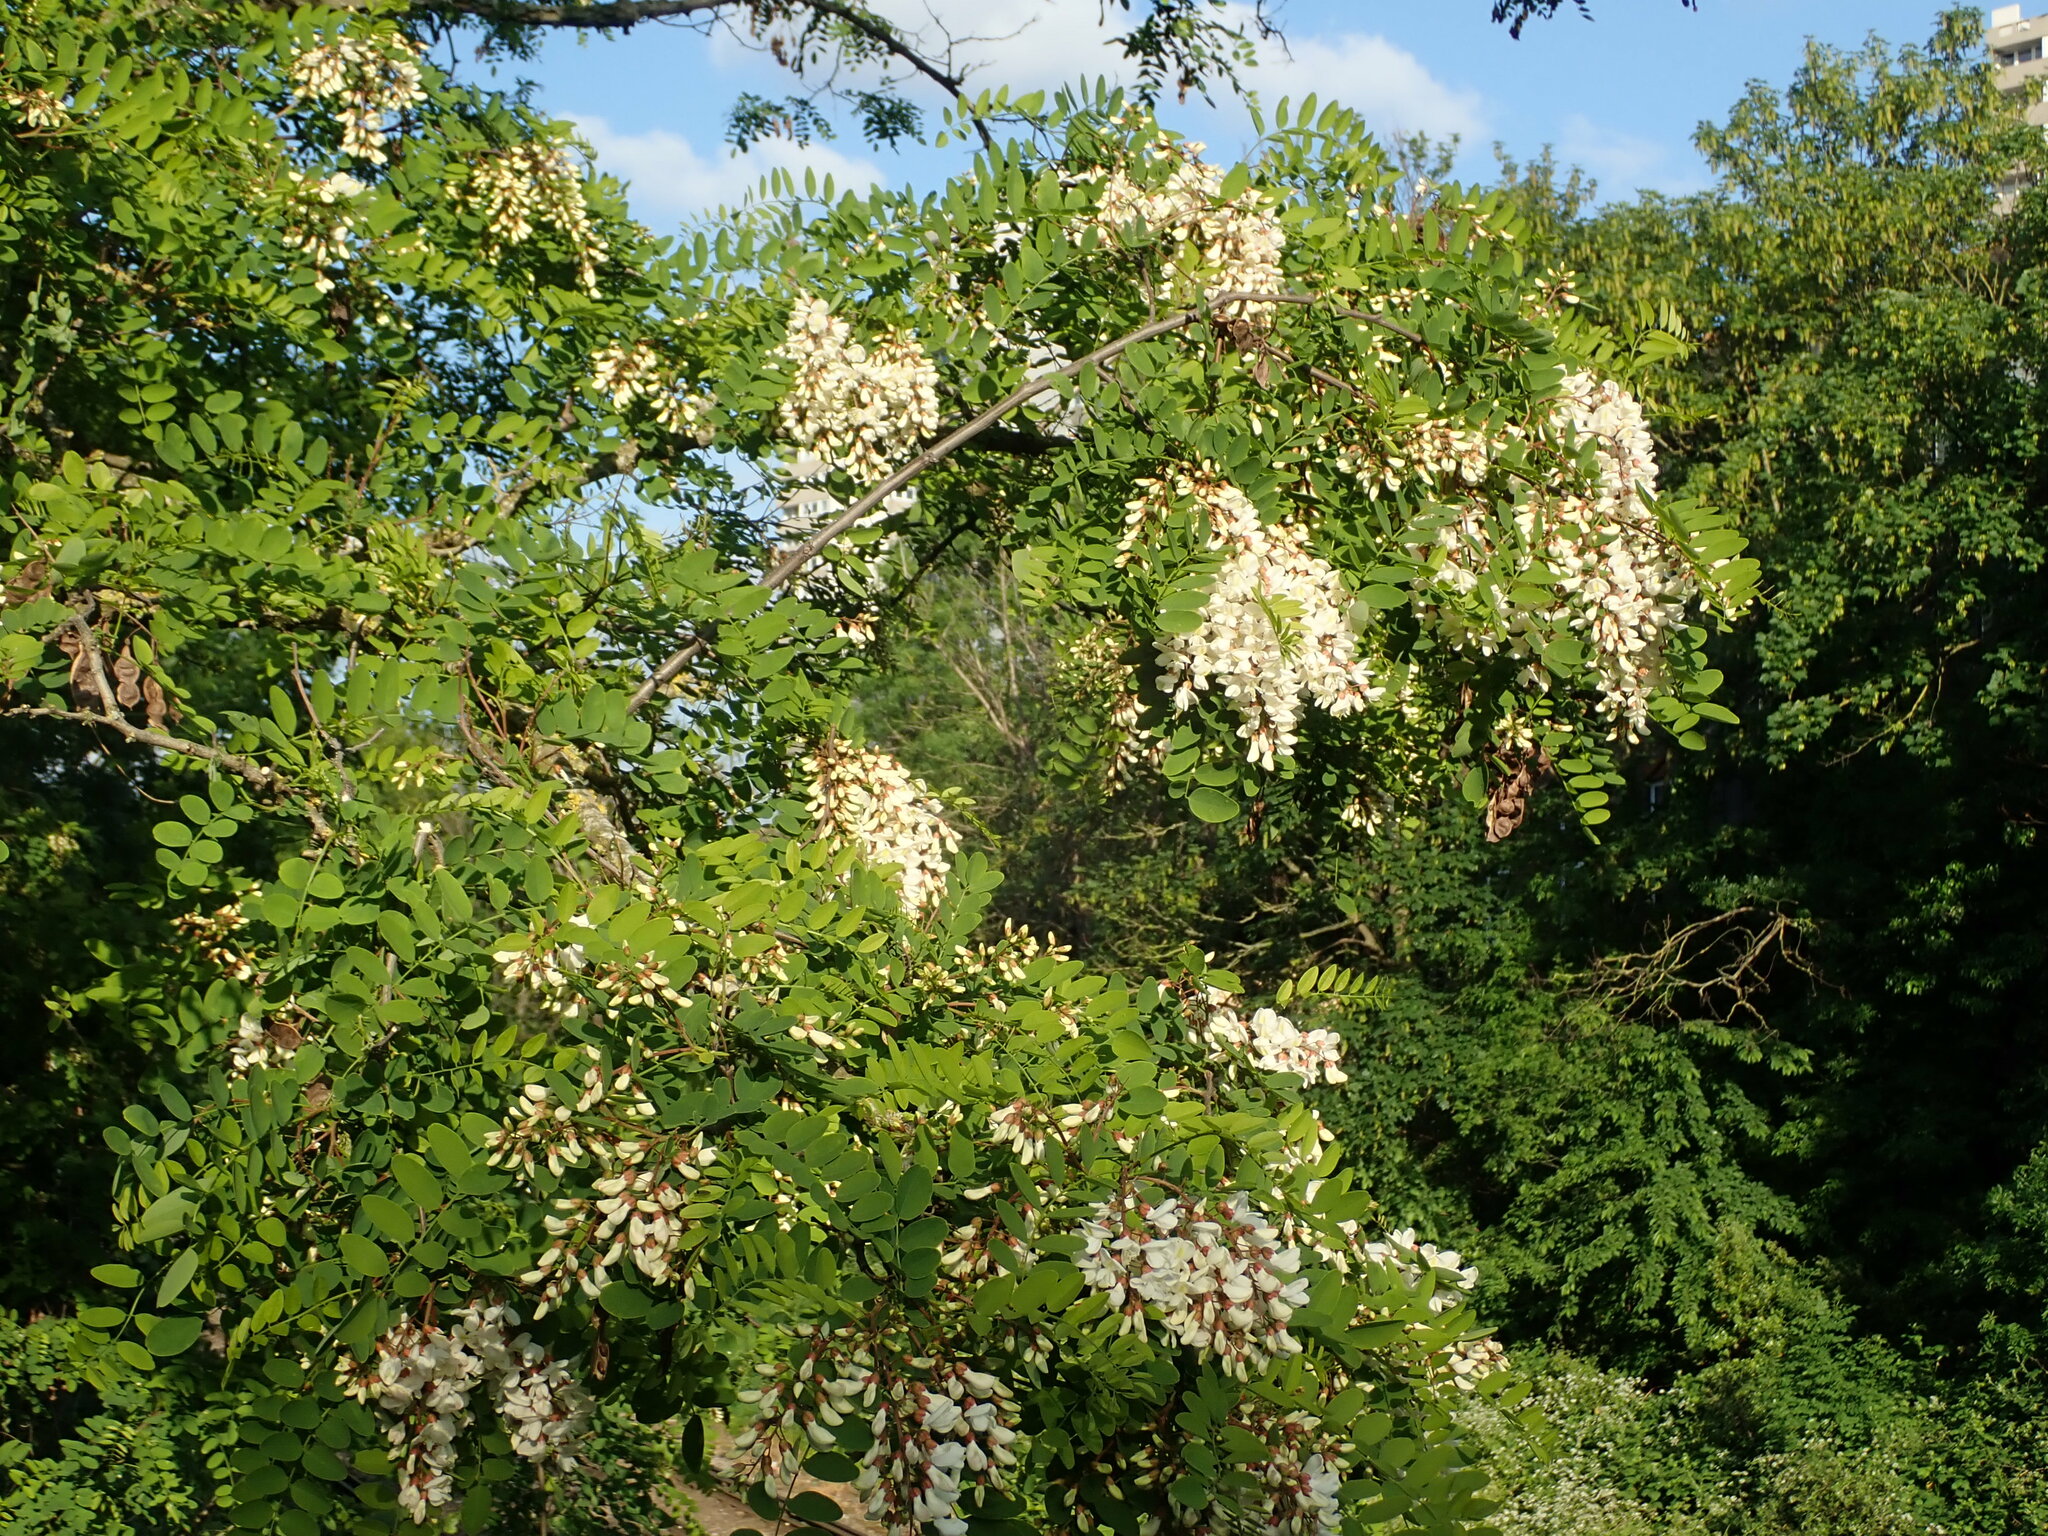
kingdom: Plantae
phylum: Tracheophyta
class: Magnoliopsida
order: Fabales
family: Fabaceae
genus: Robinia
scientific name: Robinia pseudoacacia
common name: Black locust
